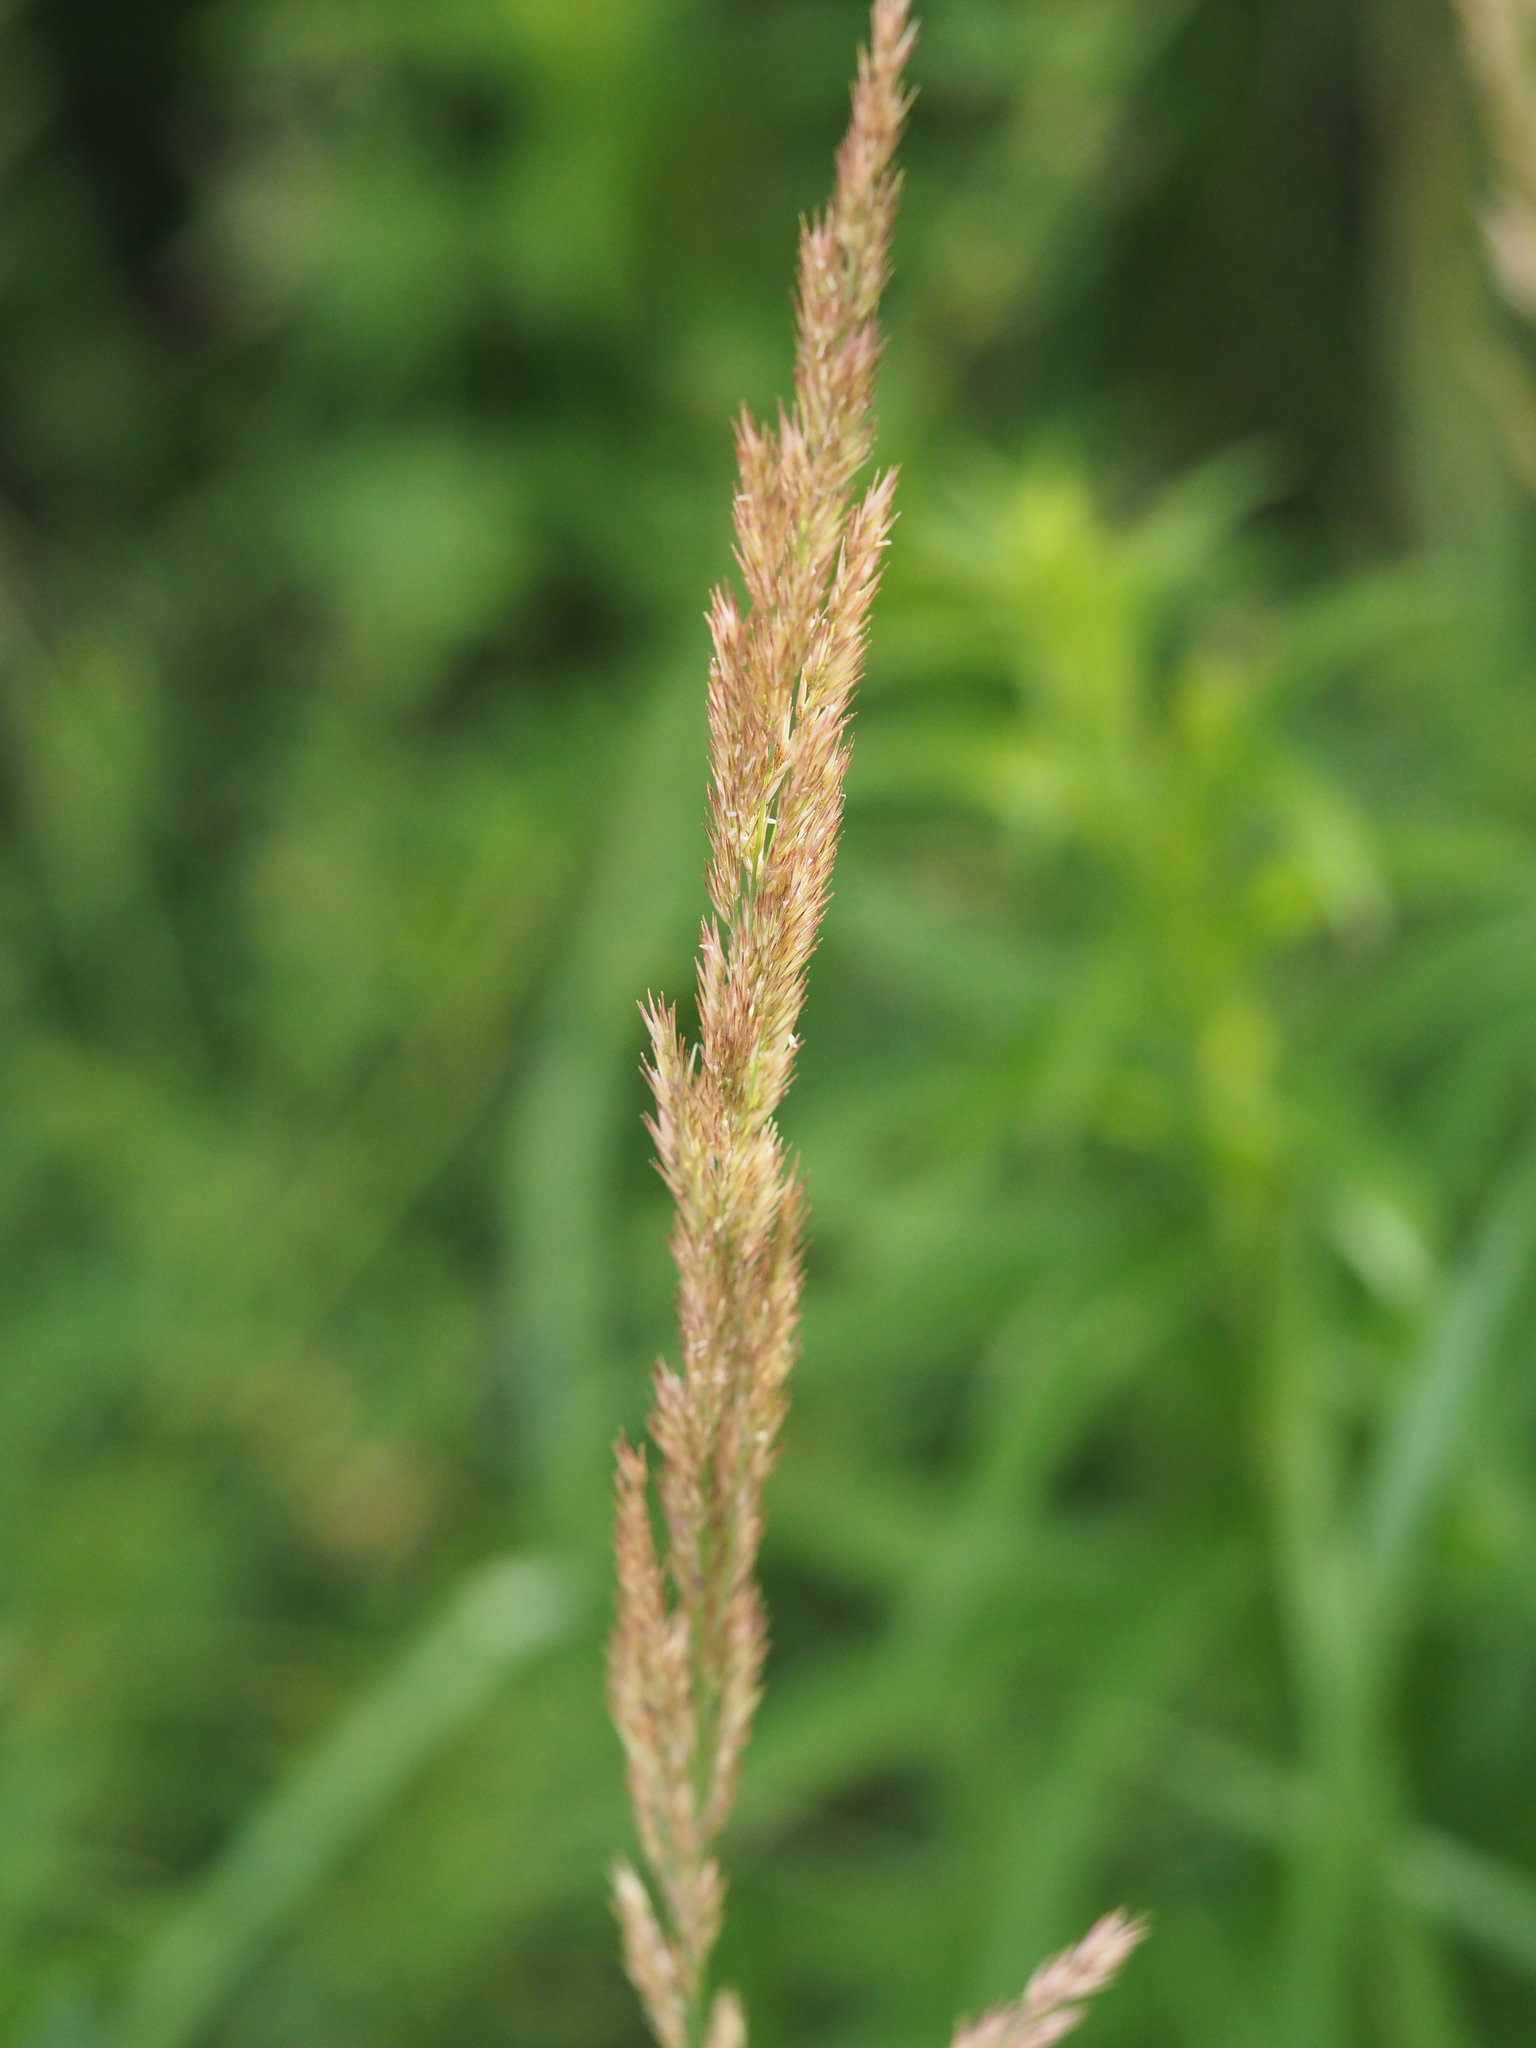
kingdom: Plantae
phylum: Tracheophyta
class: Liliopsida
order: Poales
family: Poaceae
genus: Calamagrostis
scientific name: Calamagrostis epigejos
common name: Wood small-reed
